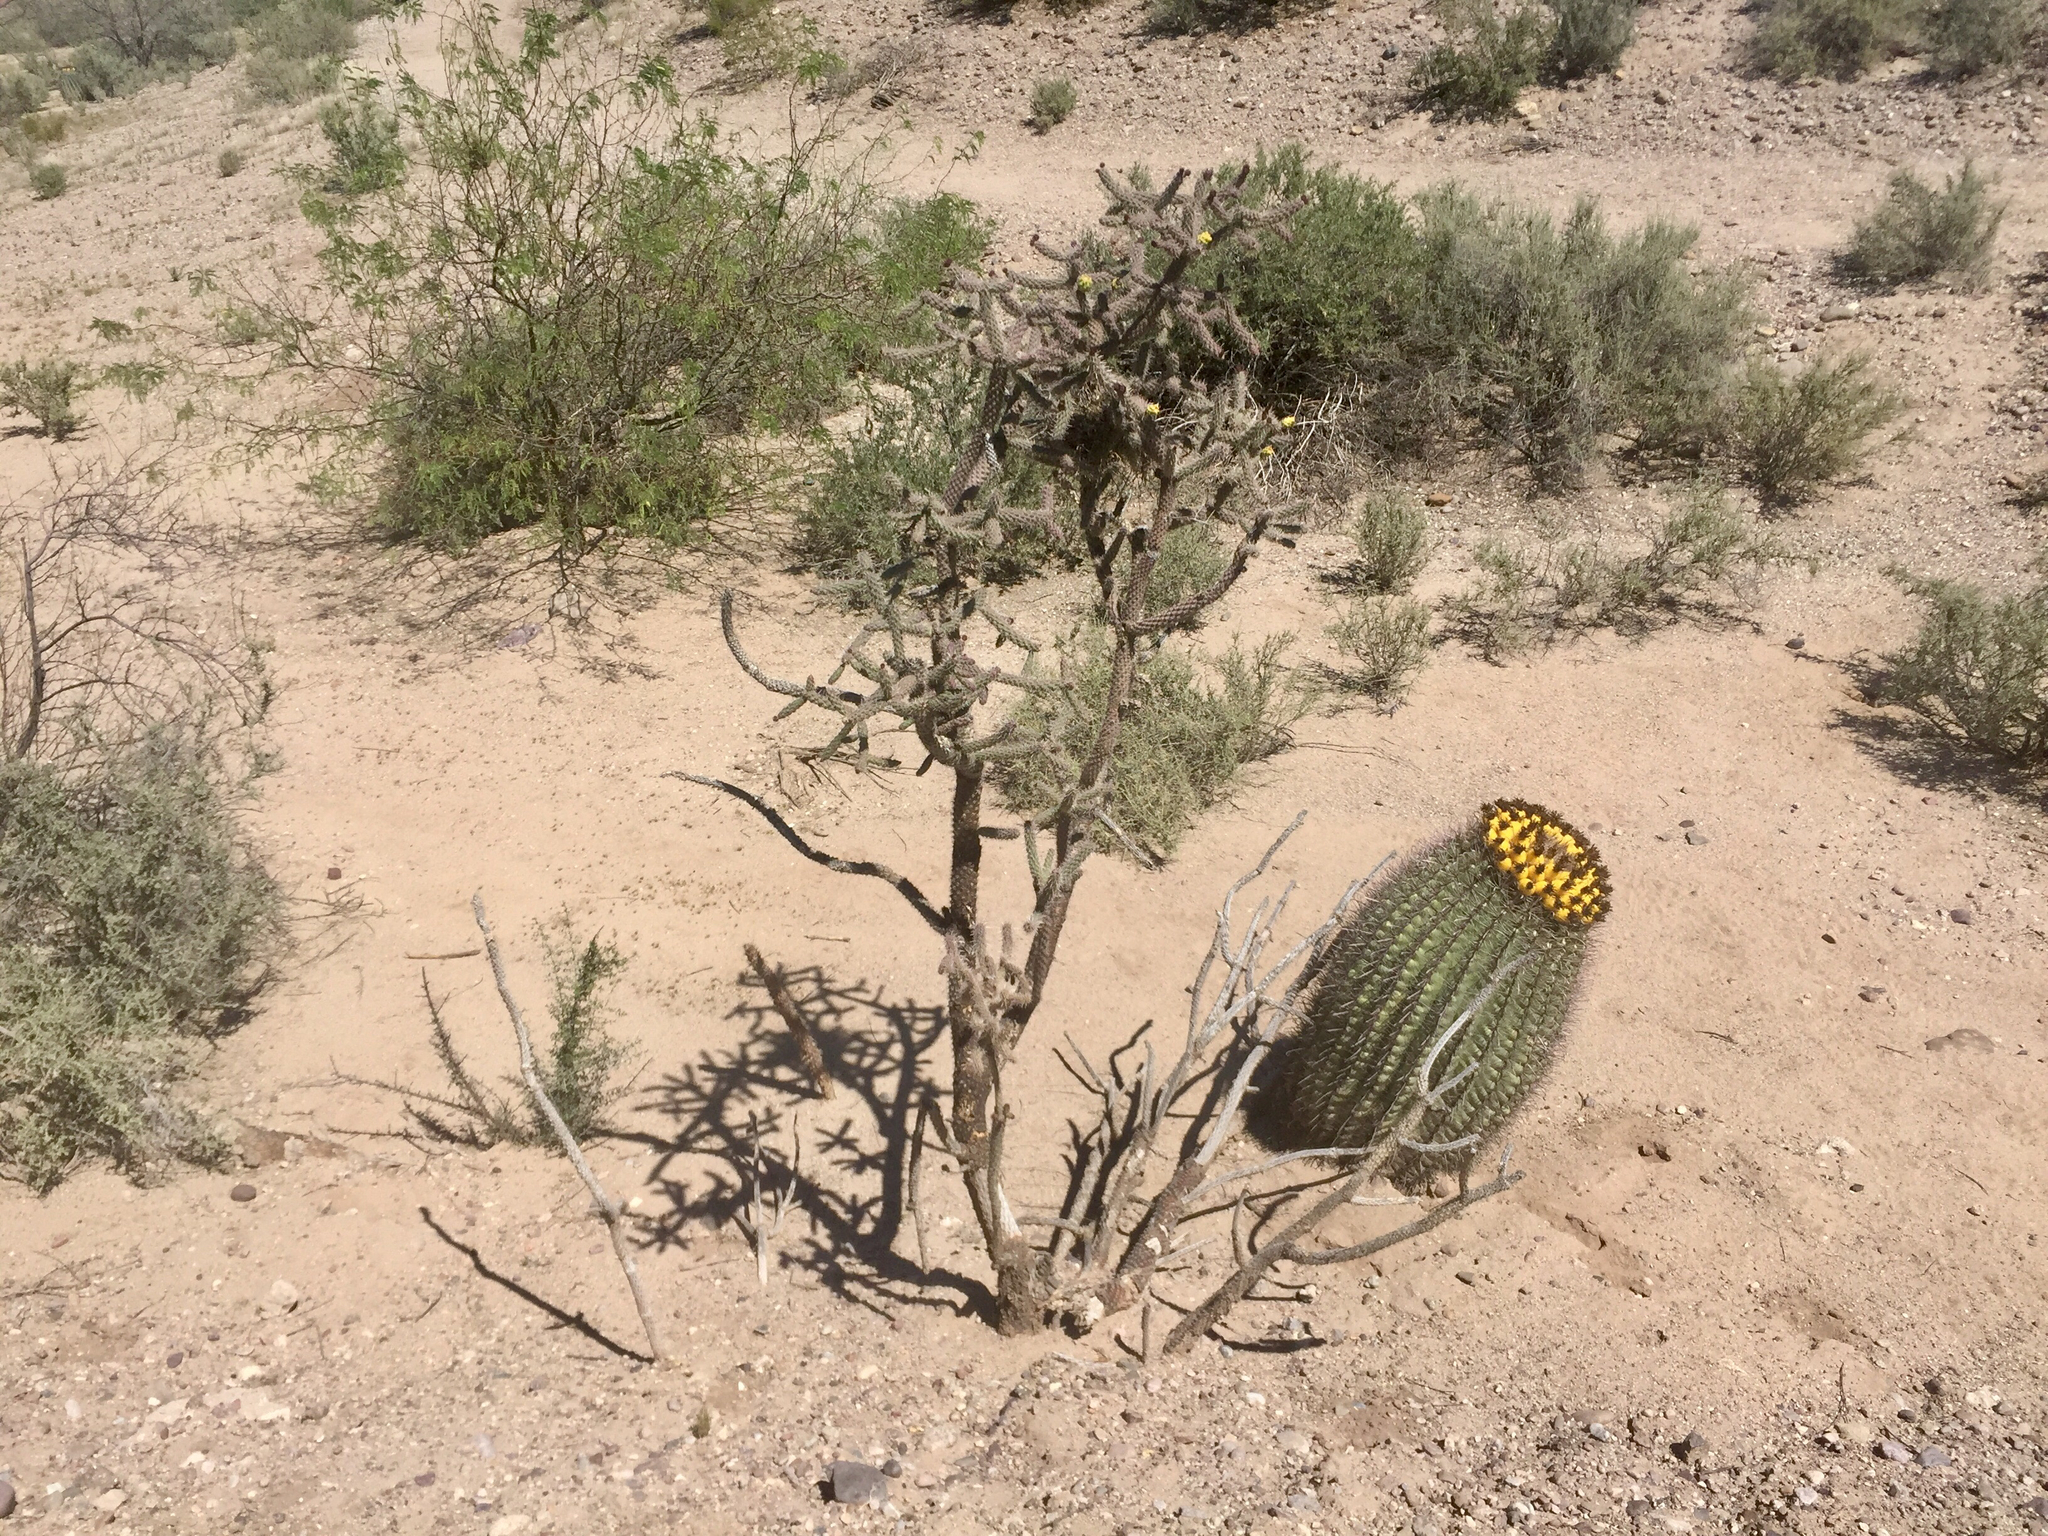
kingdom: Plantae
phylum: Tracheophyta
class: Magnoliopsida
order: Caryophyllales
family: Cactaceae
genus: Cylindropuntia
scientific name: Cylindropuntia imbricata
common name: Candelabrum cactus
